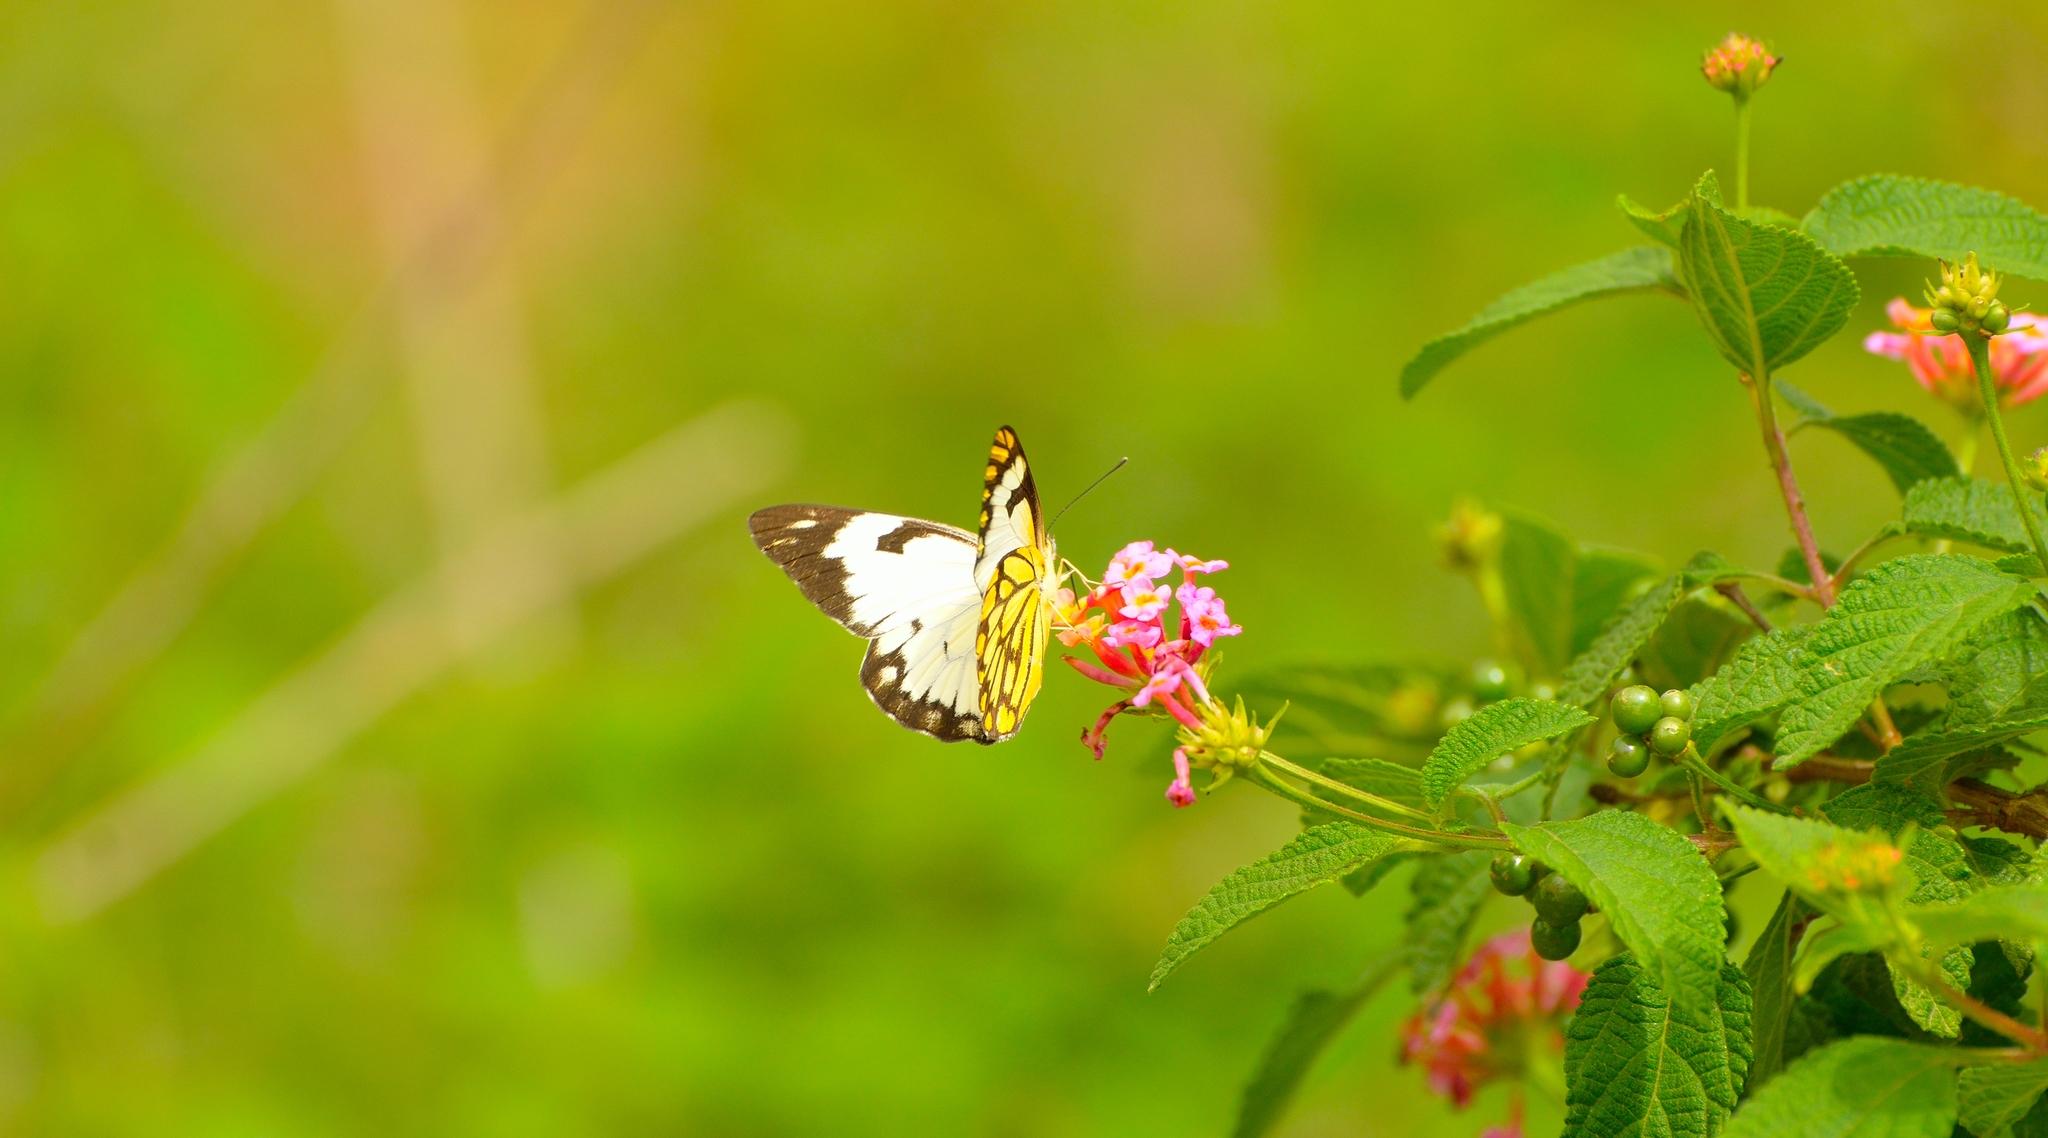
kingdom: Animalia
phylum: Arthropoda
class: Insecta
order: Lepidoptera
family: Pieridae
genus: Belenois
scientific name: Belenois aurota
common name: Brown-veined white
